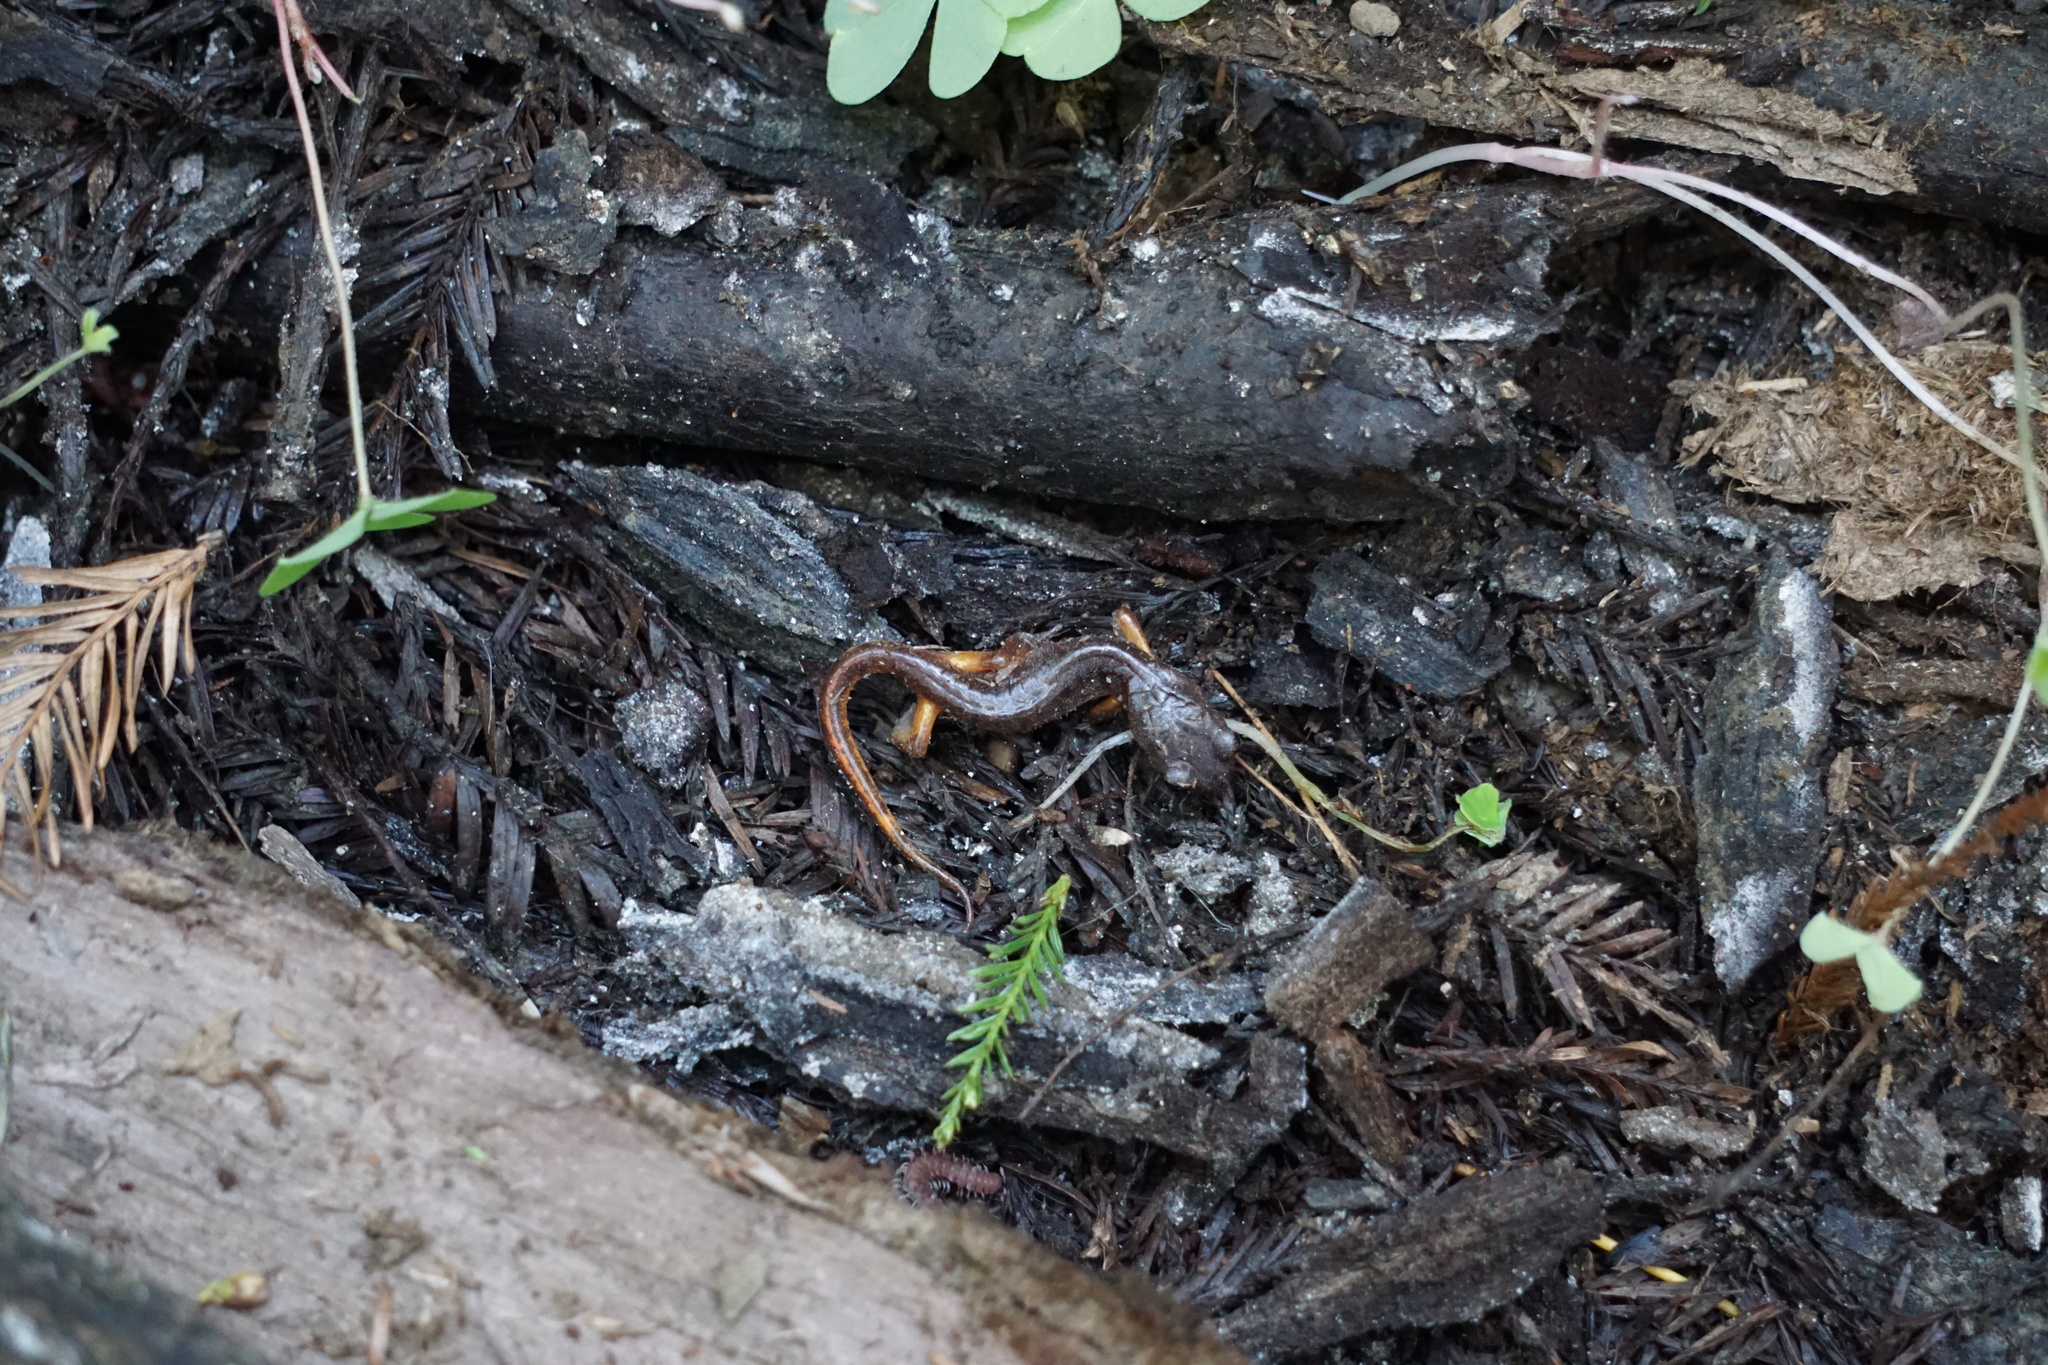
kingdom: Animalia
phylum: Chordata
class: Amphibia
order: Caudata
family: Plethodontidae
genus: Ensatina
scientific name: Ensatina eschscholtzii
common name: Ensatina
